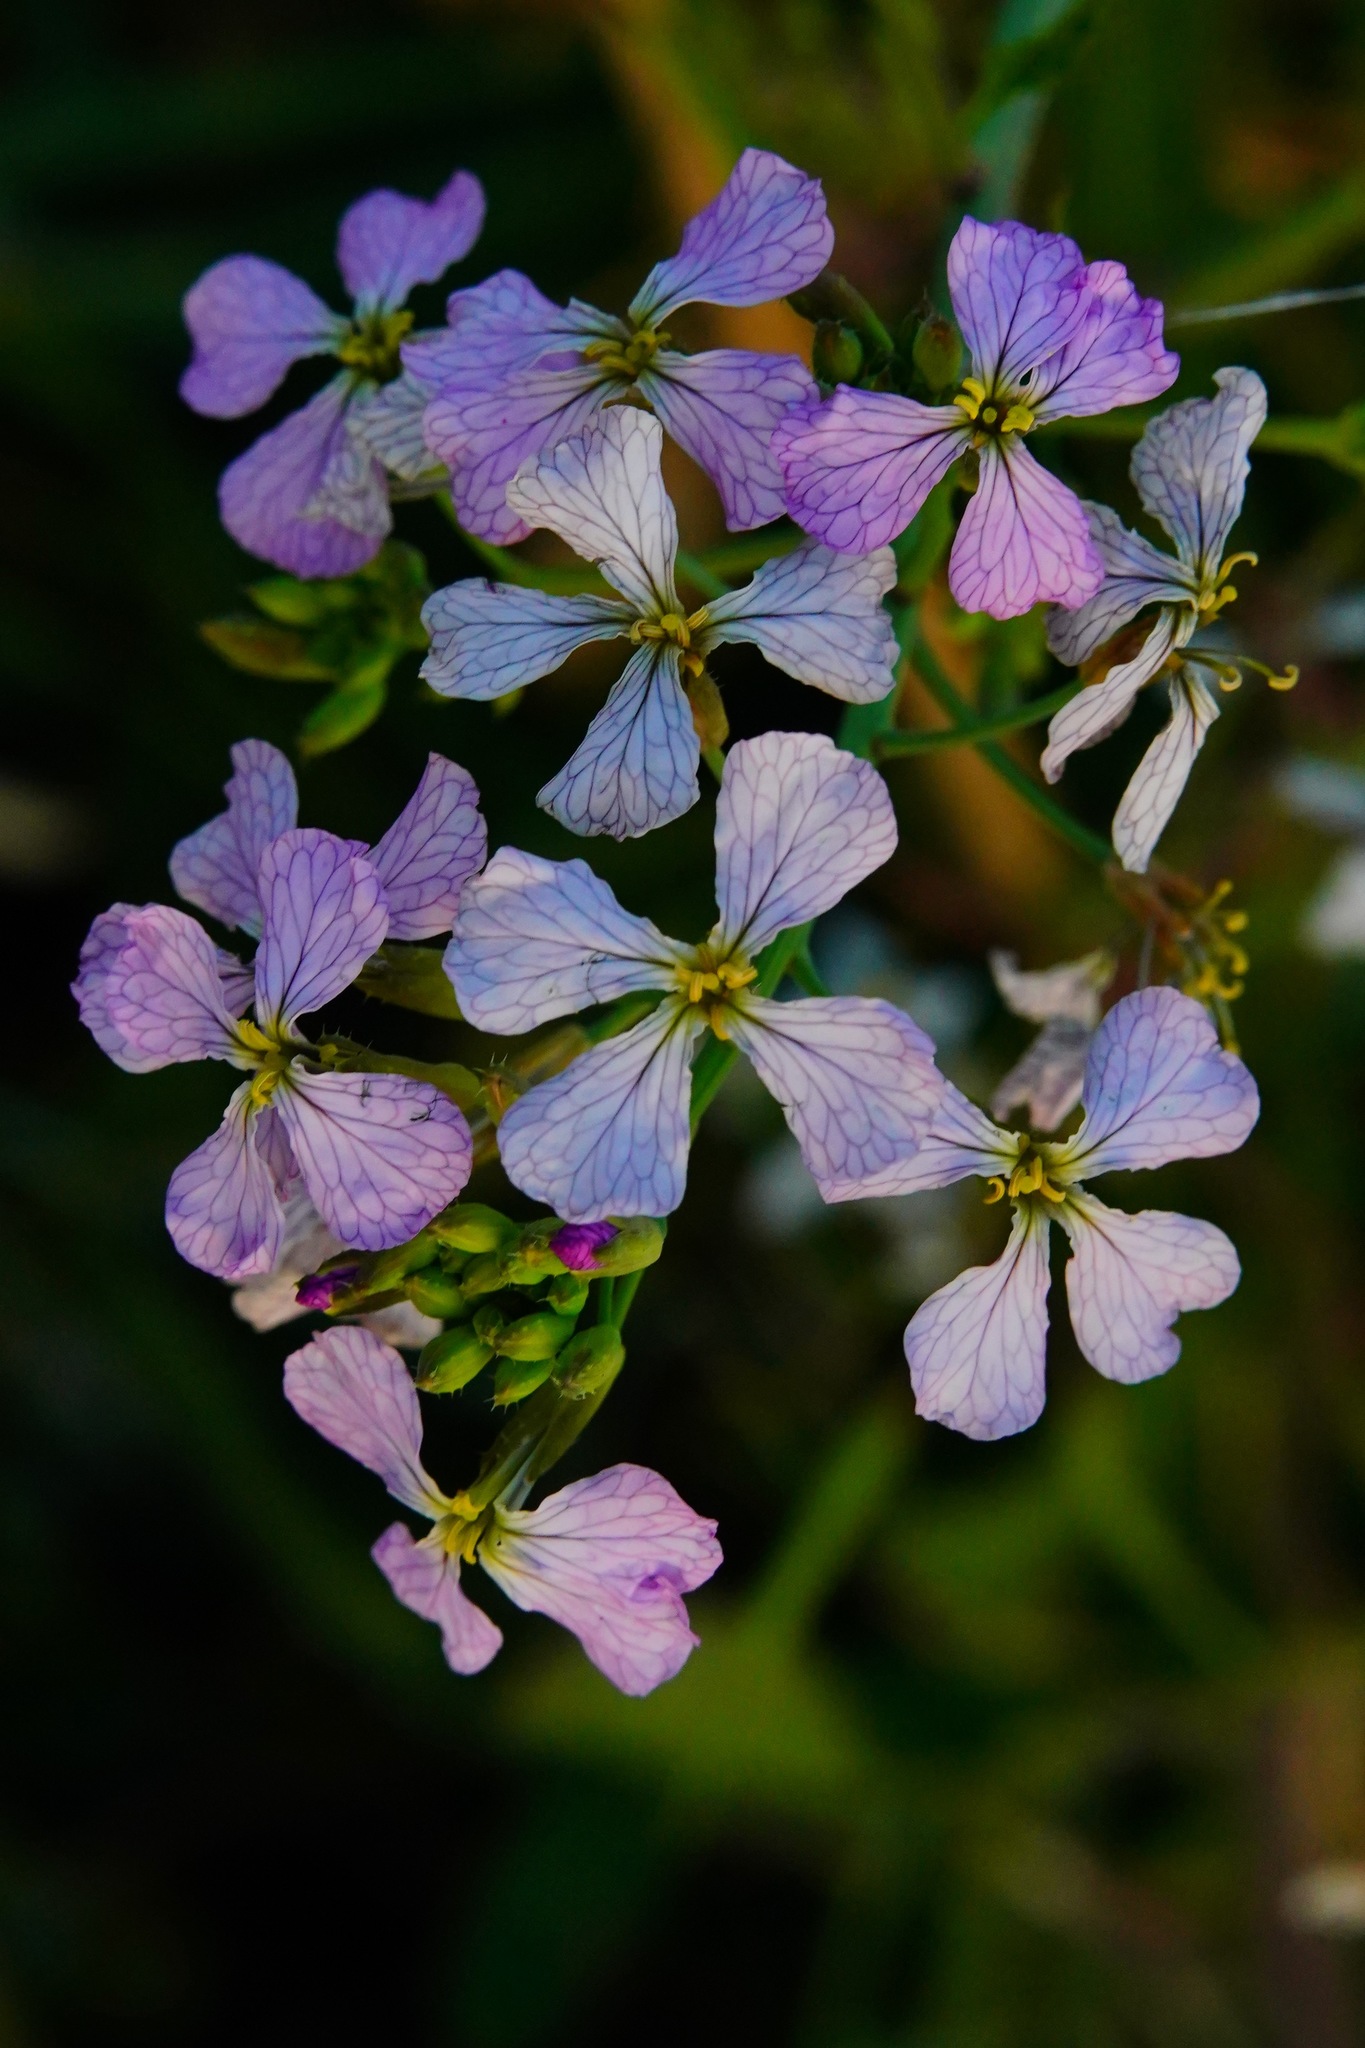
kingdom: Plantae
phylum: Tracheophyta
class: Magnoliopsida
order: Brassicales
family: Brassicaceae
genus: Raphanus
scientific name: Raphanus sativus
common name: Cultivated radish
